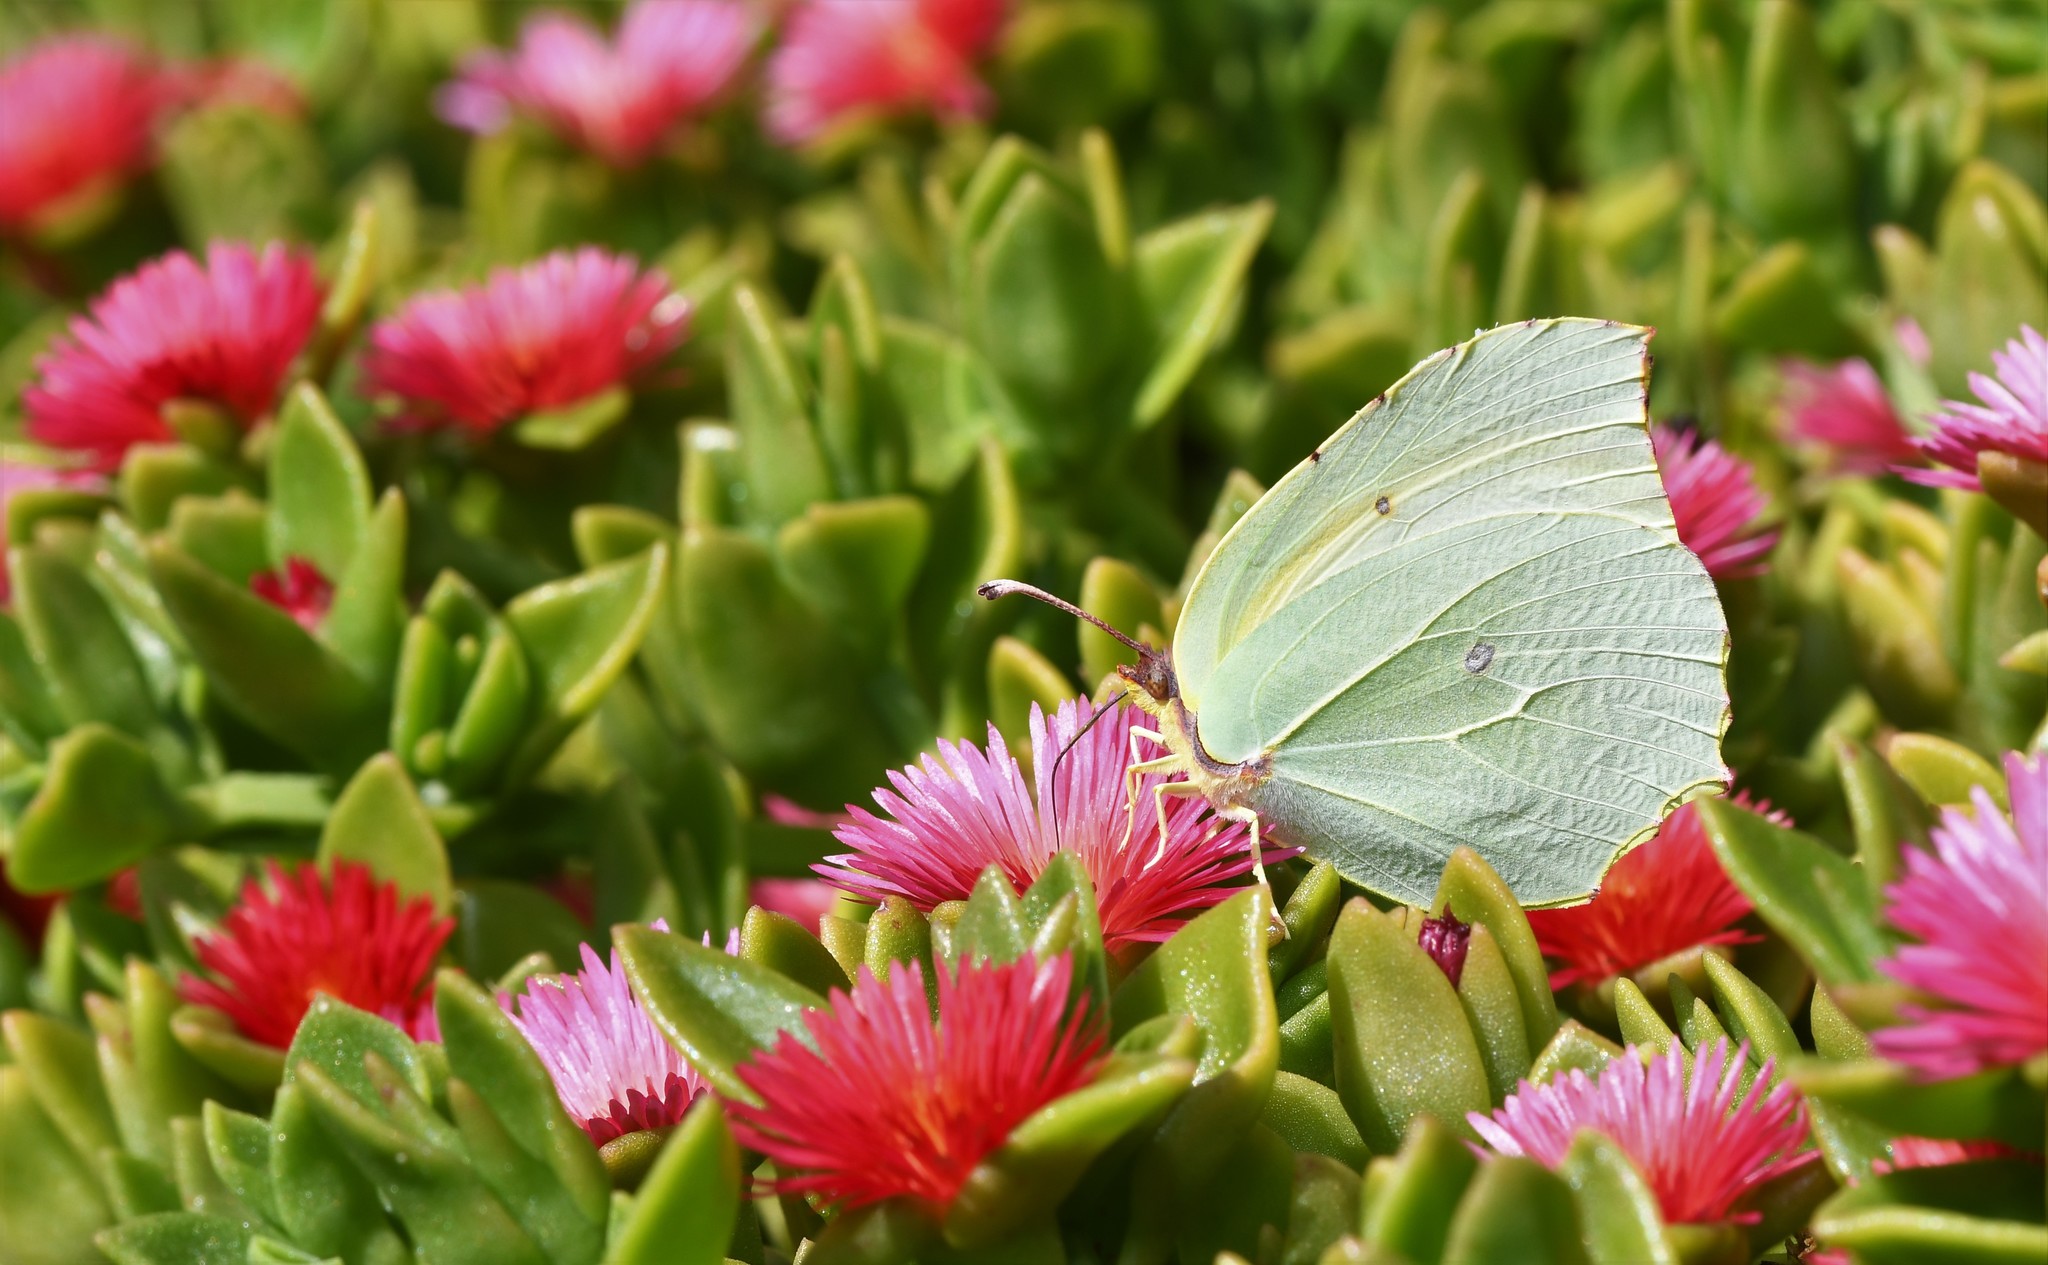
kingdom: Animalia
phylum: Arthropoda
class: Insecta
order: Lepidoptera
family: Pieridae
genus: Gonepteryx
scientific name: Gonepteryx cleopatra
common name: Cleopatra
